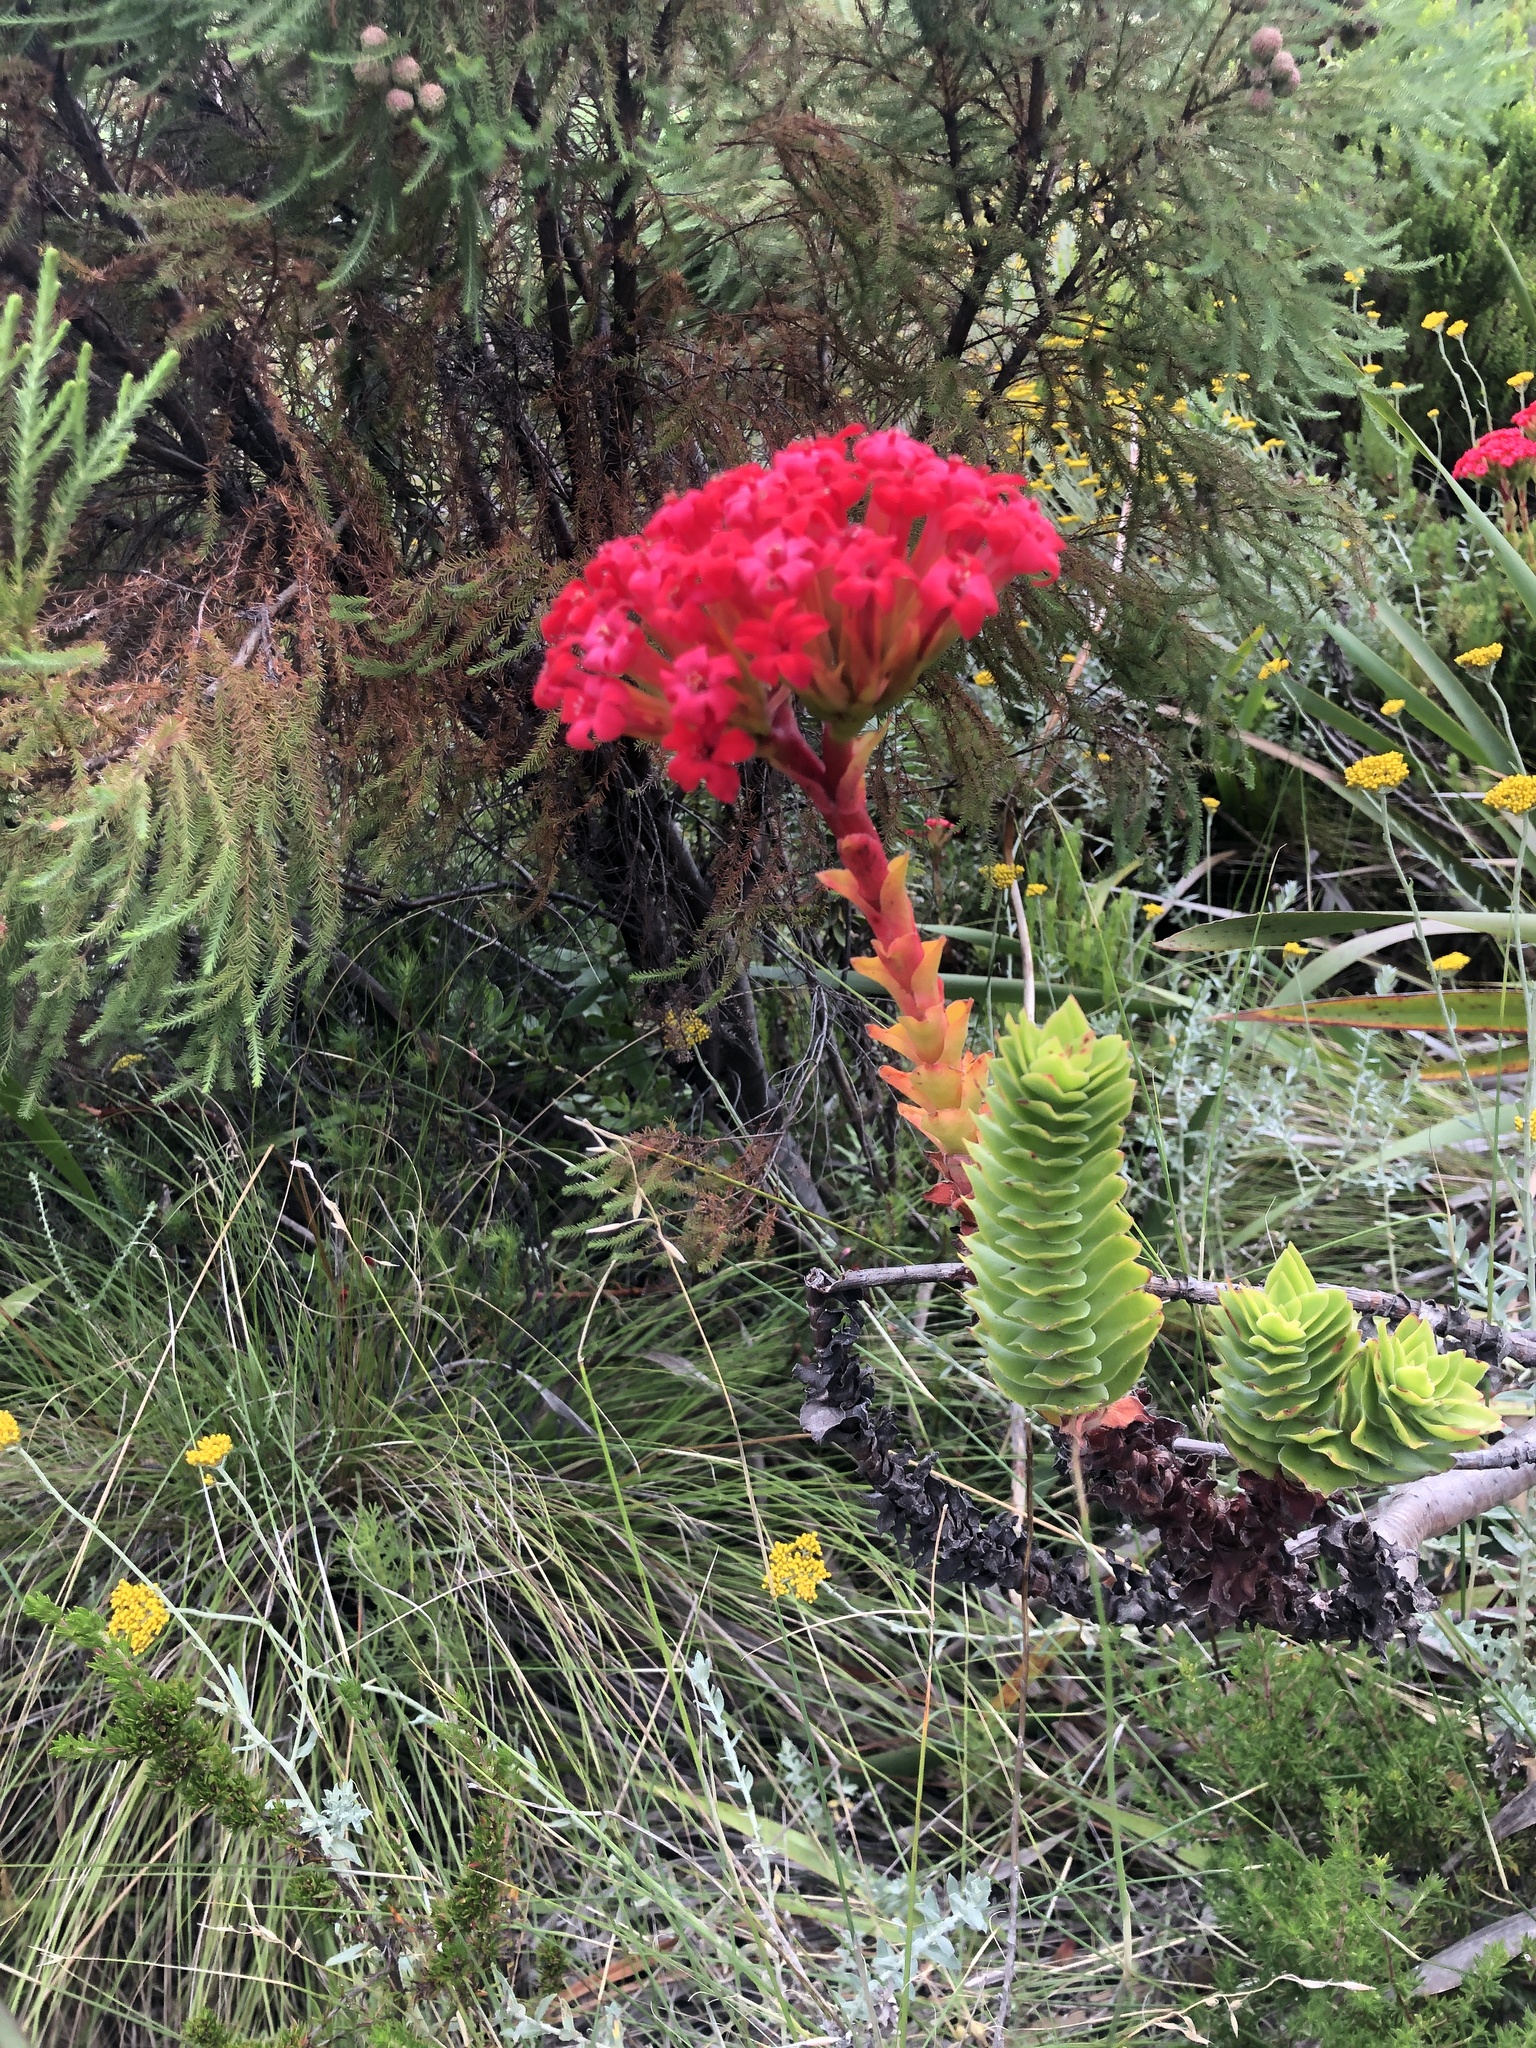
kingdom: Plantae
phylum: Tracheophyta
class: Magnoliopsida
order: Saxifragales
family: Crassulaceae
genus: Crassula
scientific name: Crassula coccinea
